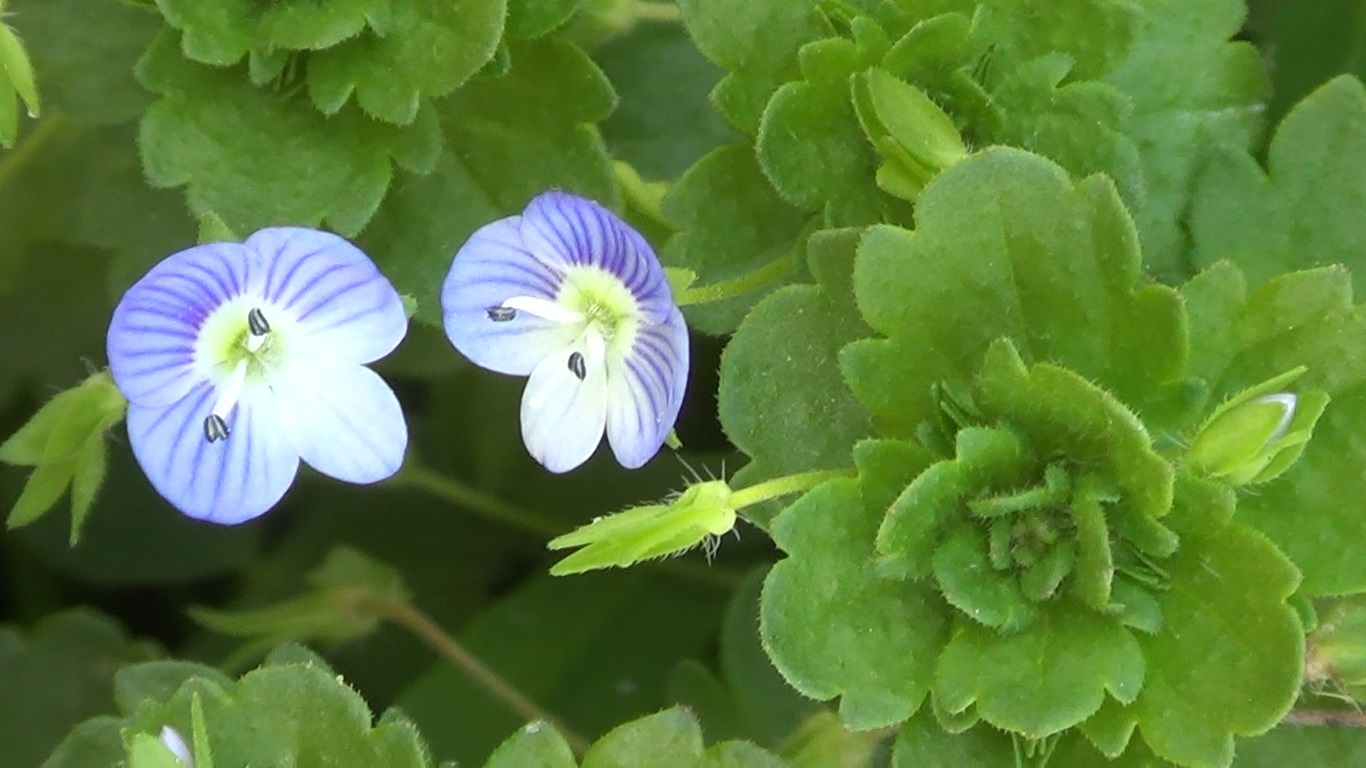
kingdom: Plantae
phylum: Tracheophyta
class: Magnoliopsida
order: Lamiales
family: Plantaginaceae
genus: Veronica
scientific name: Veronica persica
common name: Common field-speedwell
